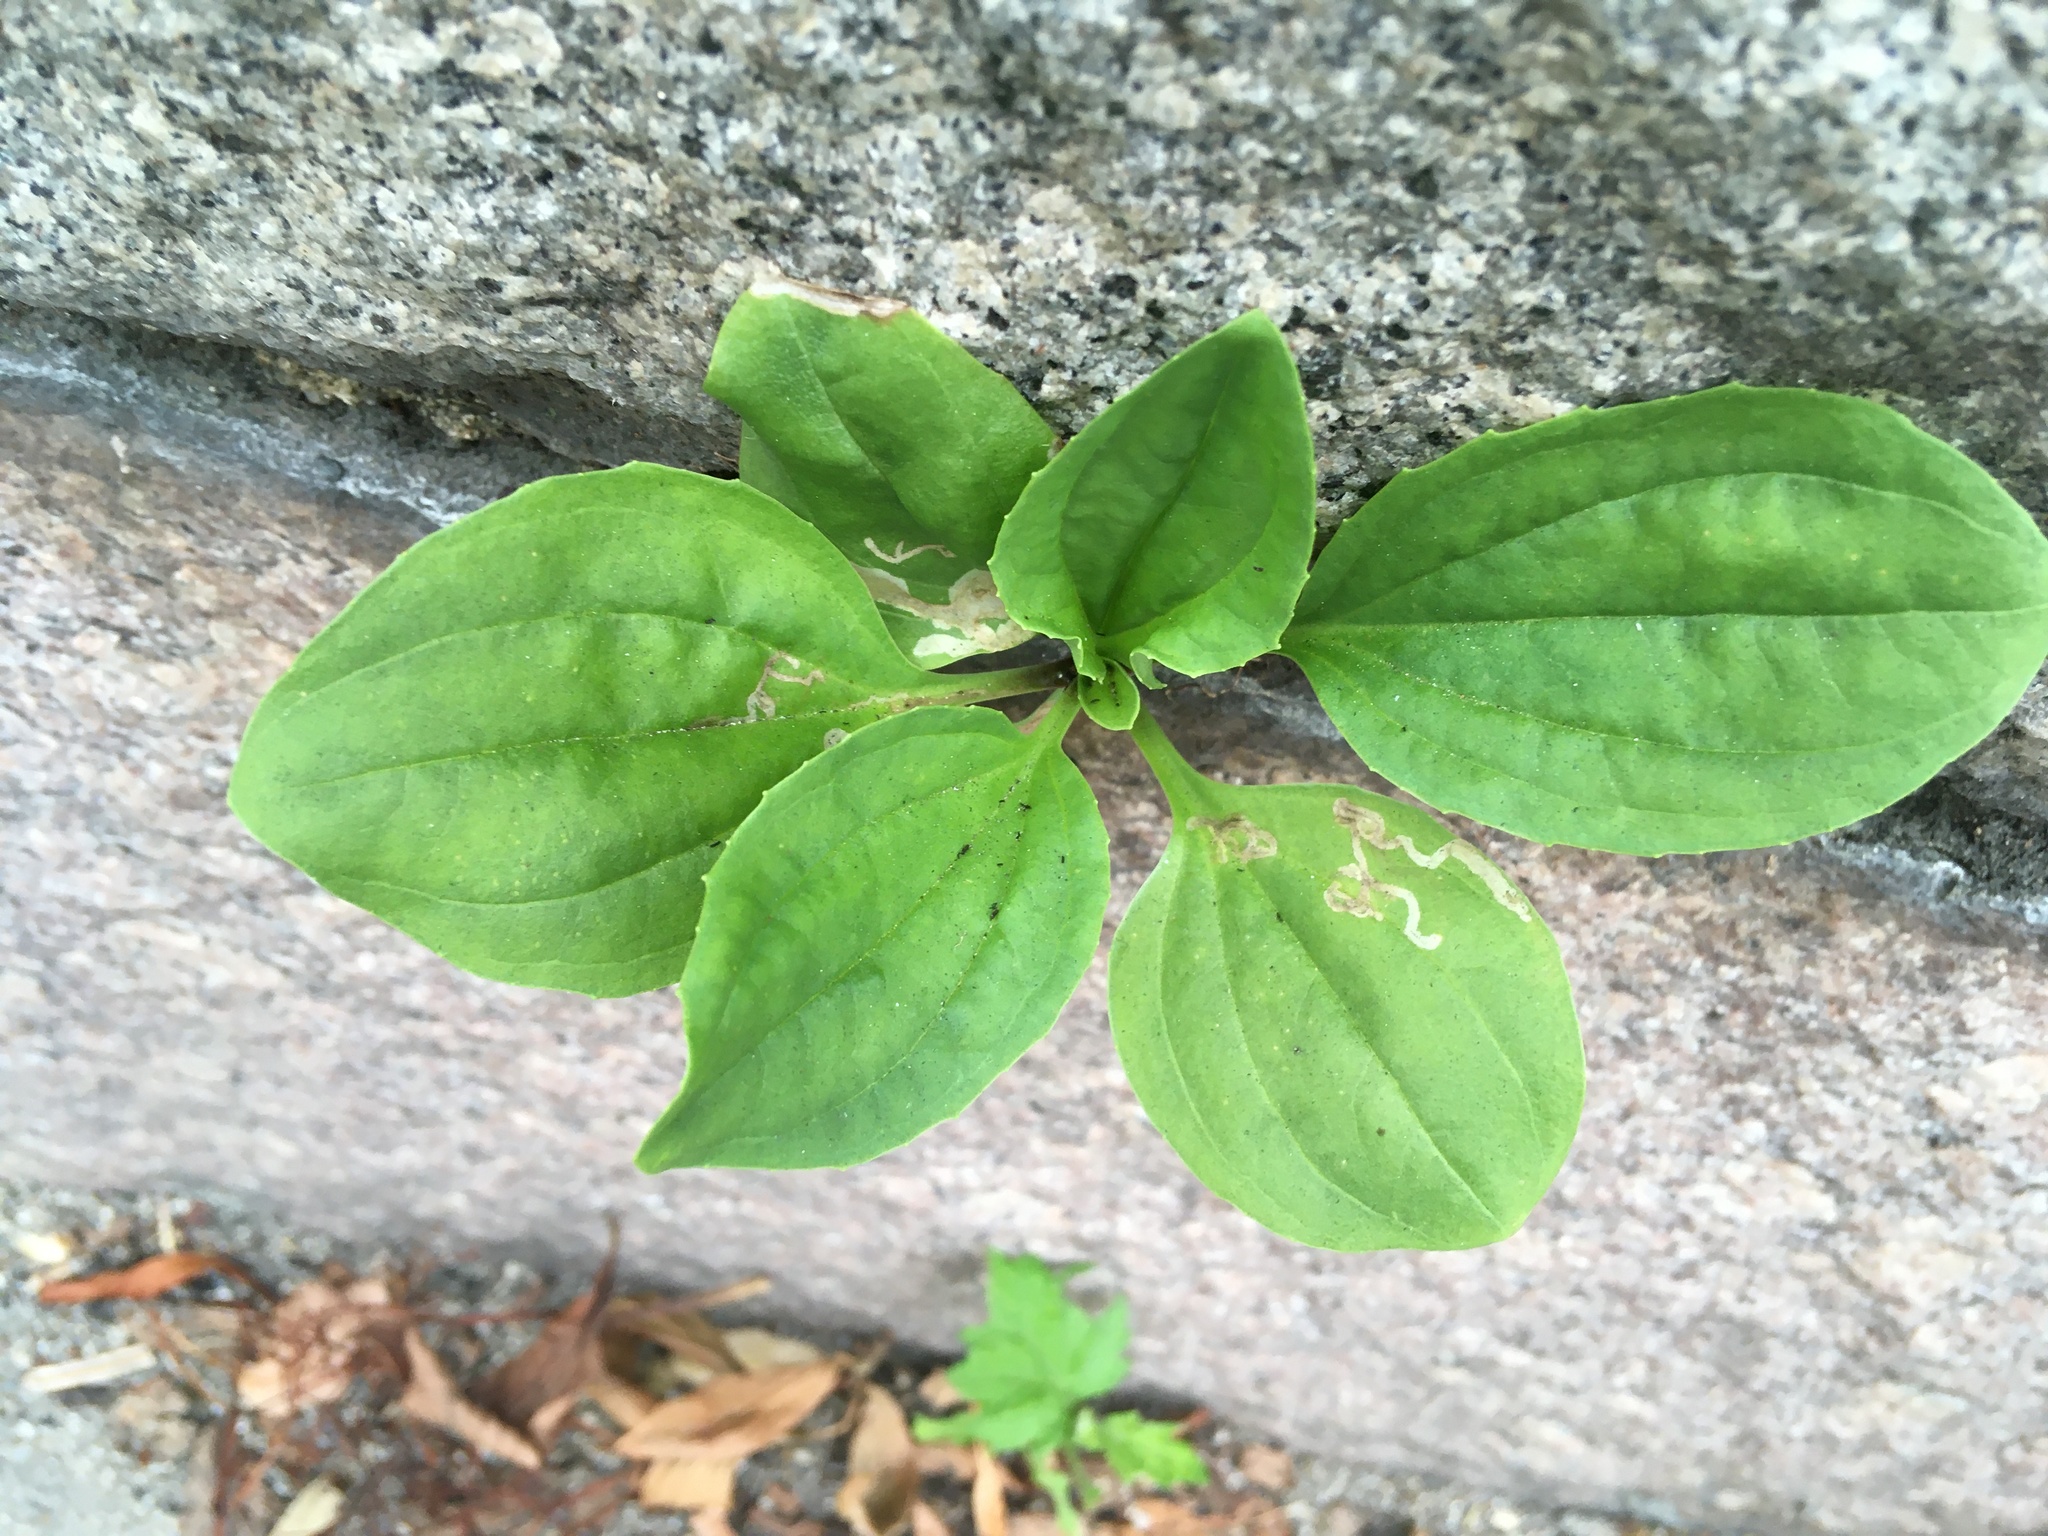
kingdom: Plantae
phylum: Tracheophyta
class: Magnoliopsida
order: Lamiales
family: Plantaginaceae
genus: Plantago
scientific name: Plantago major
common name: Common plantain
